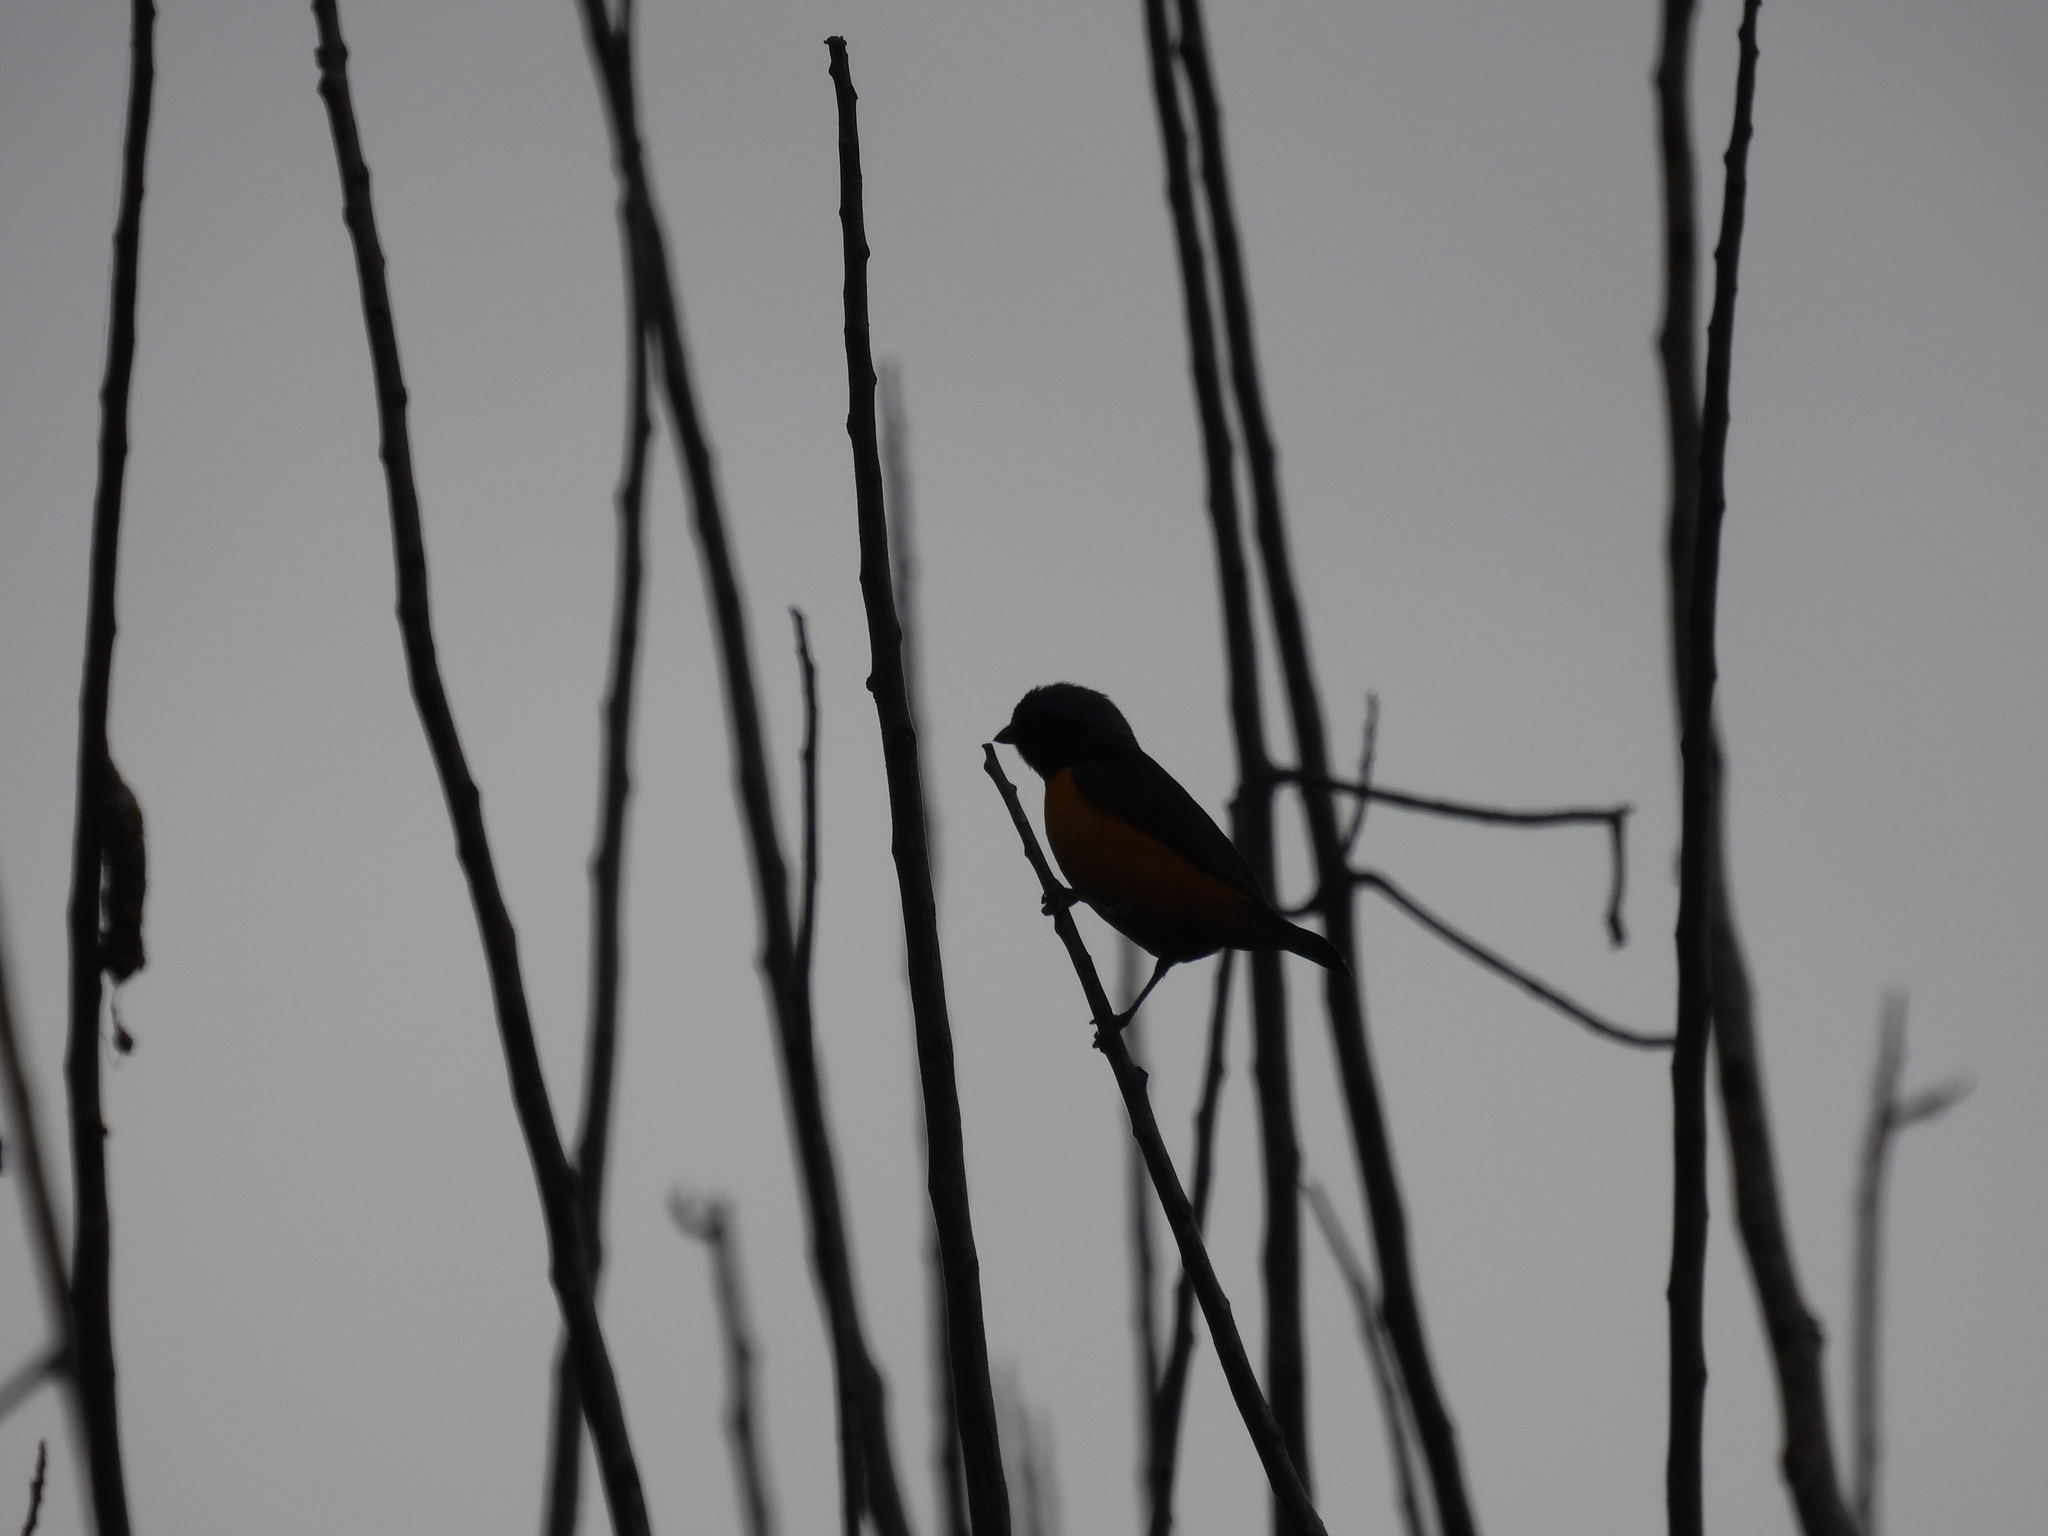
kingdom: Animalia
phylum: Chordata
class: Aves
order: Passeriformes
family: Fringillidae
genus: Euphonia
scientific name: Euphonia musica
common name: Antillean euphonia
